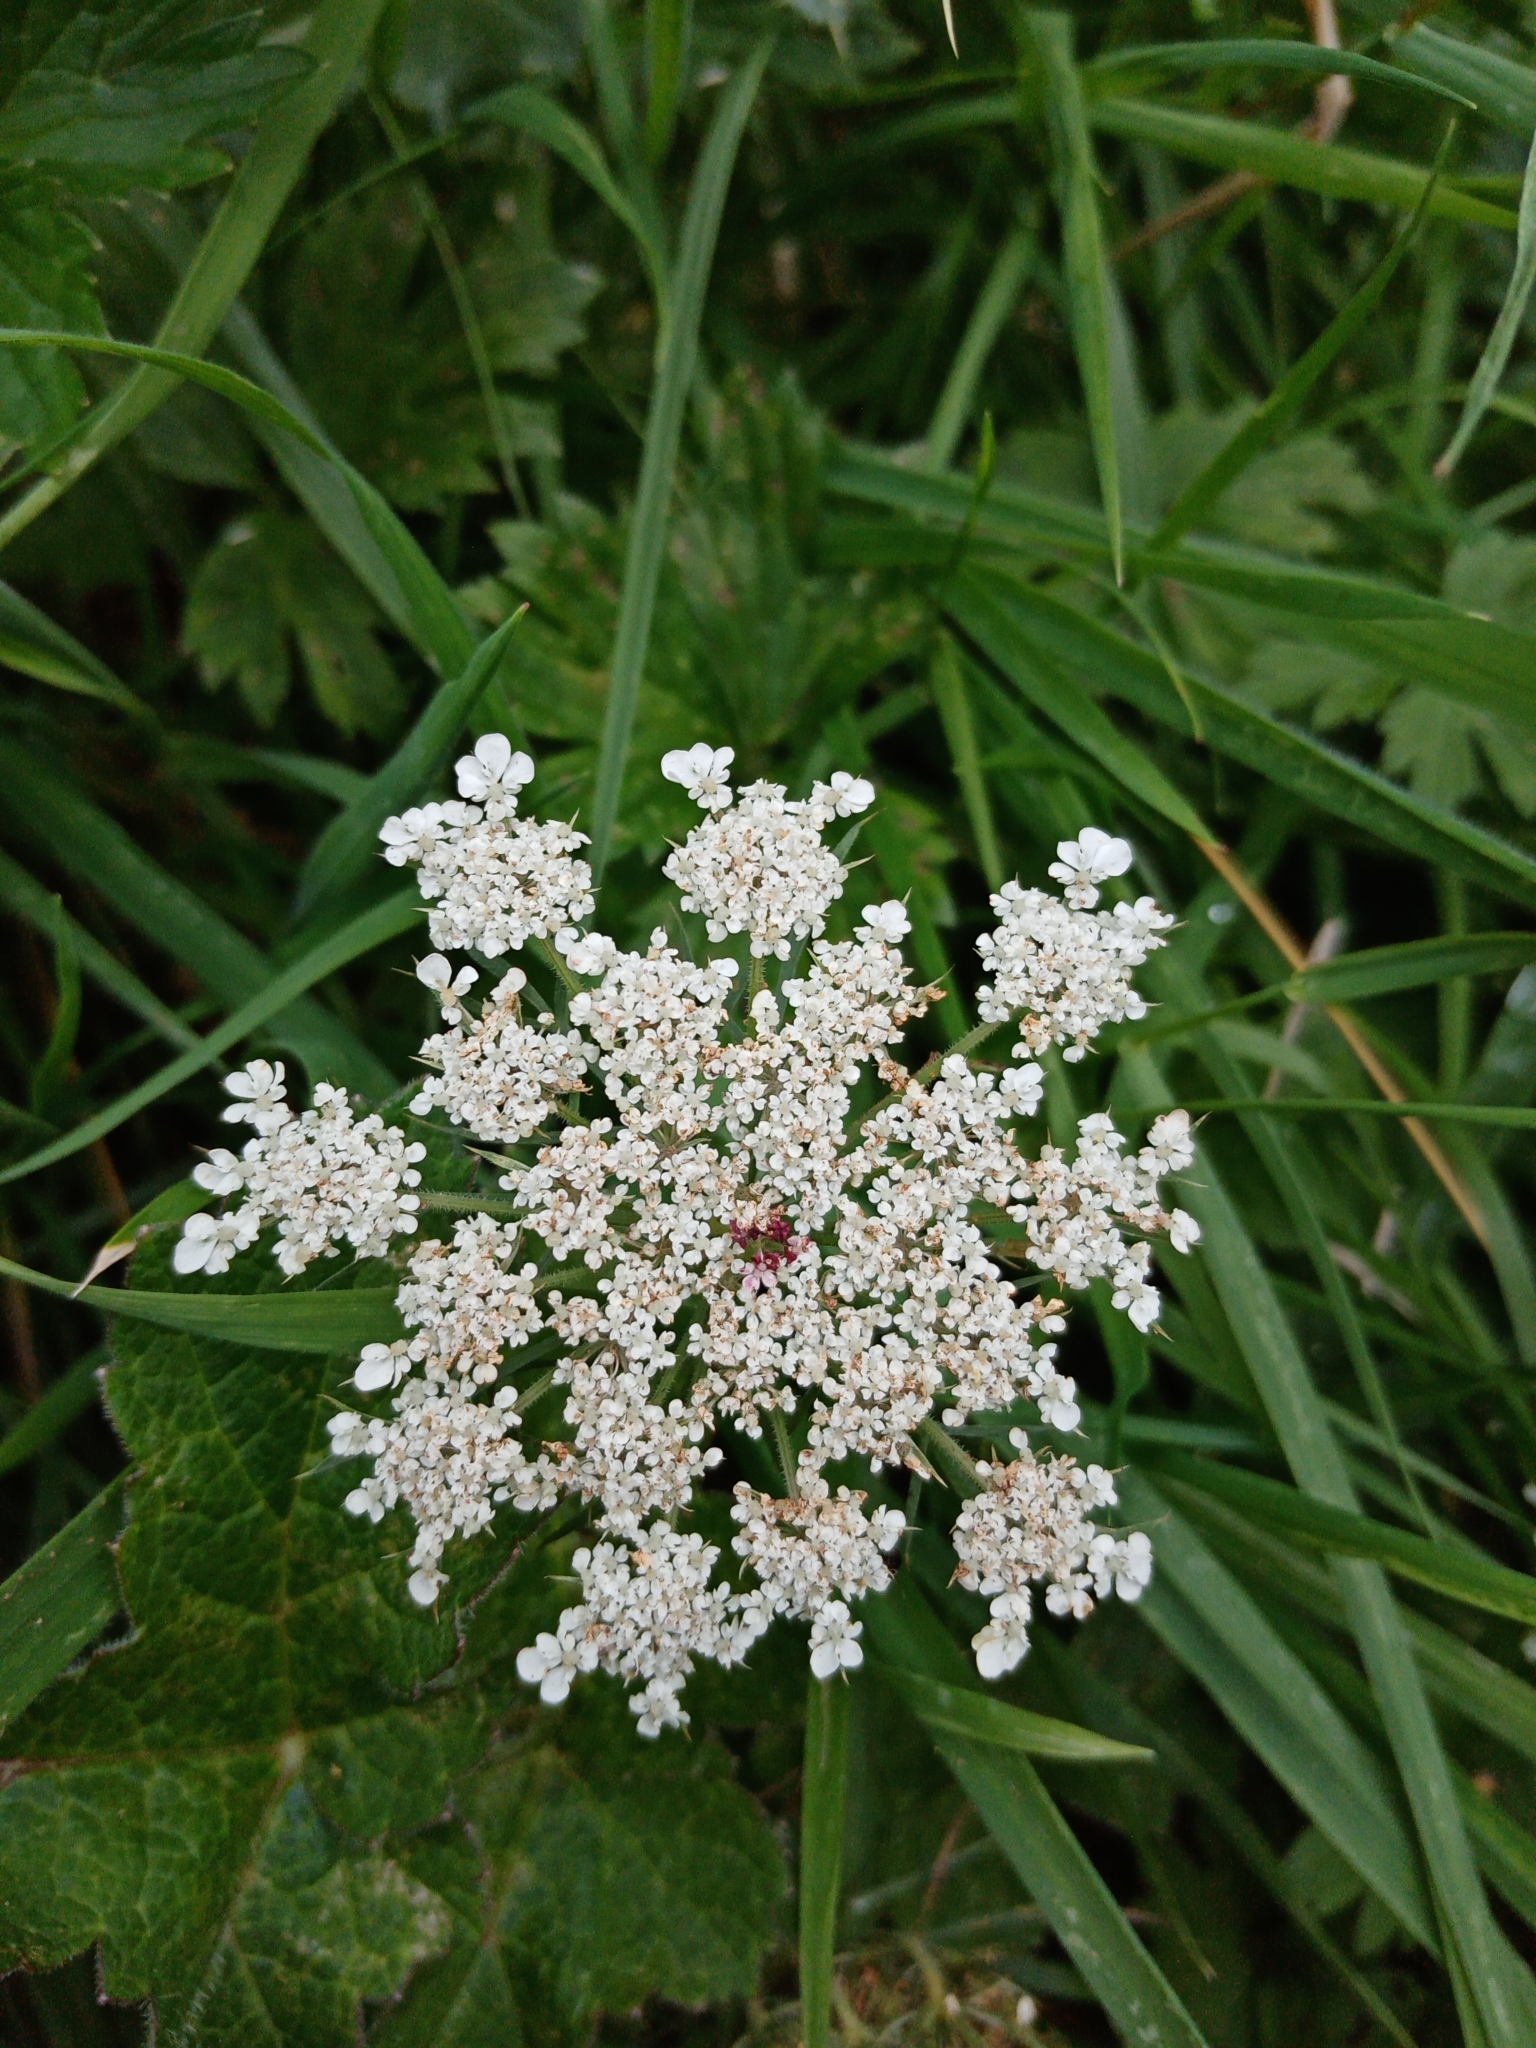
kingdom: Plantae
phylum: Tracheophyta
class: Magnoliopsida
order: Apiales
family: Apiaceae
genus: Daucus
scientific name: Daucus carota
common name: Wild carrot
